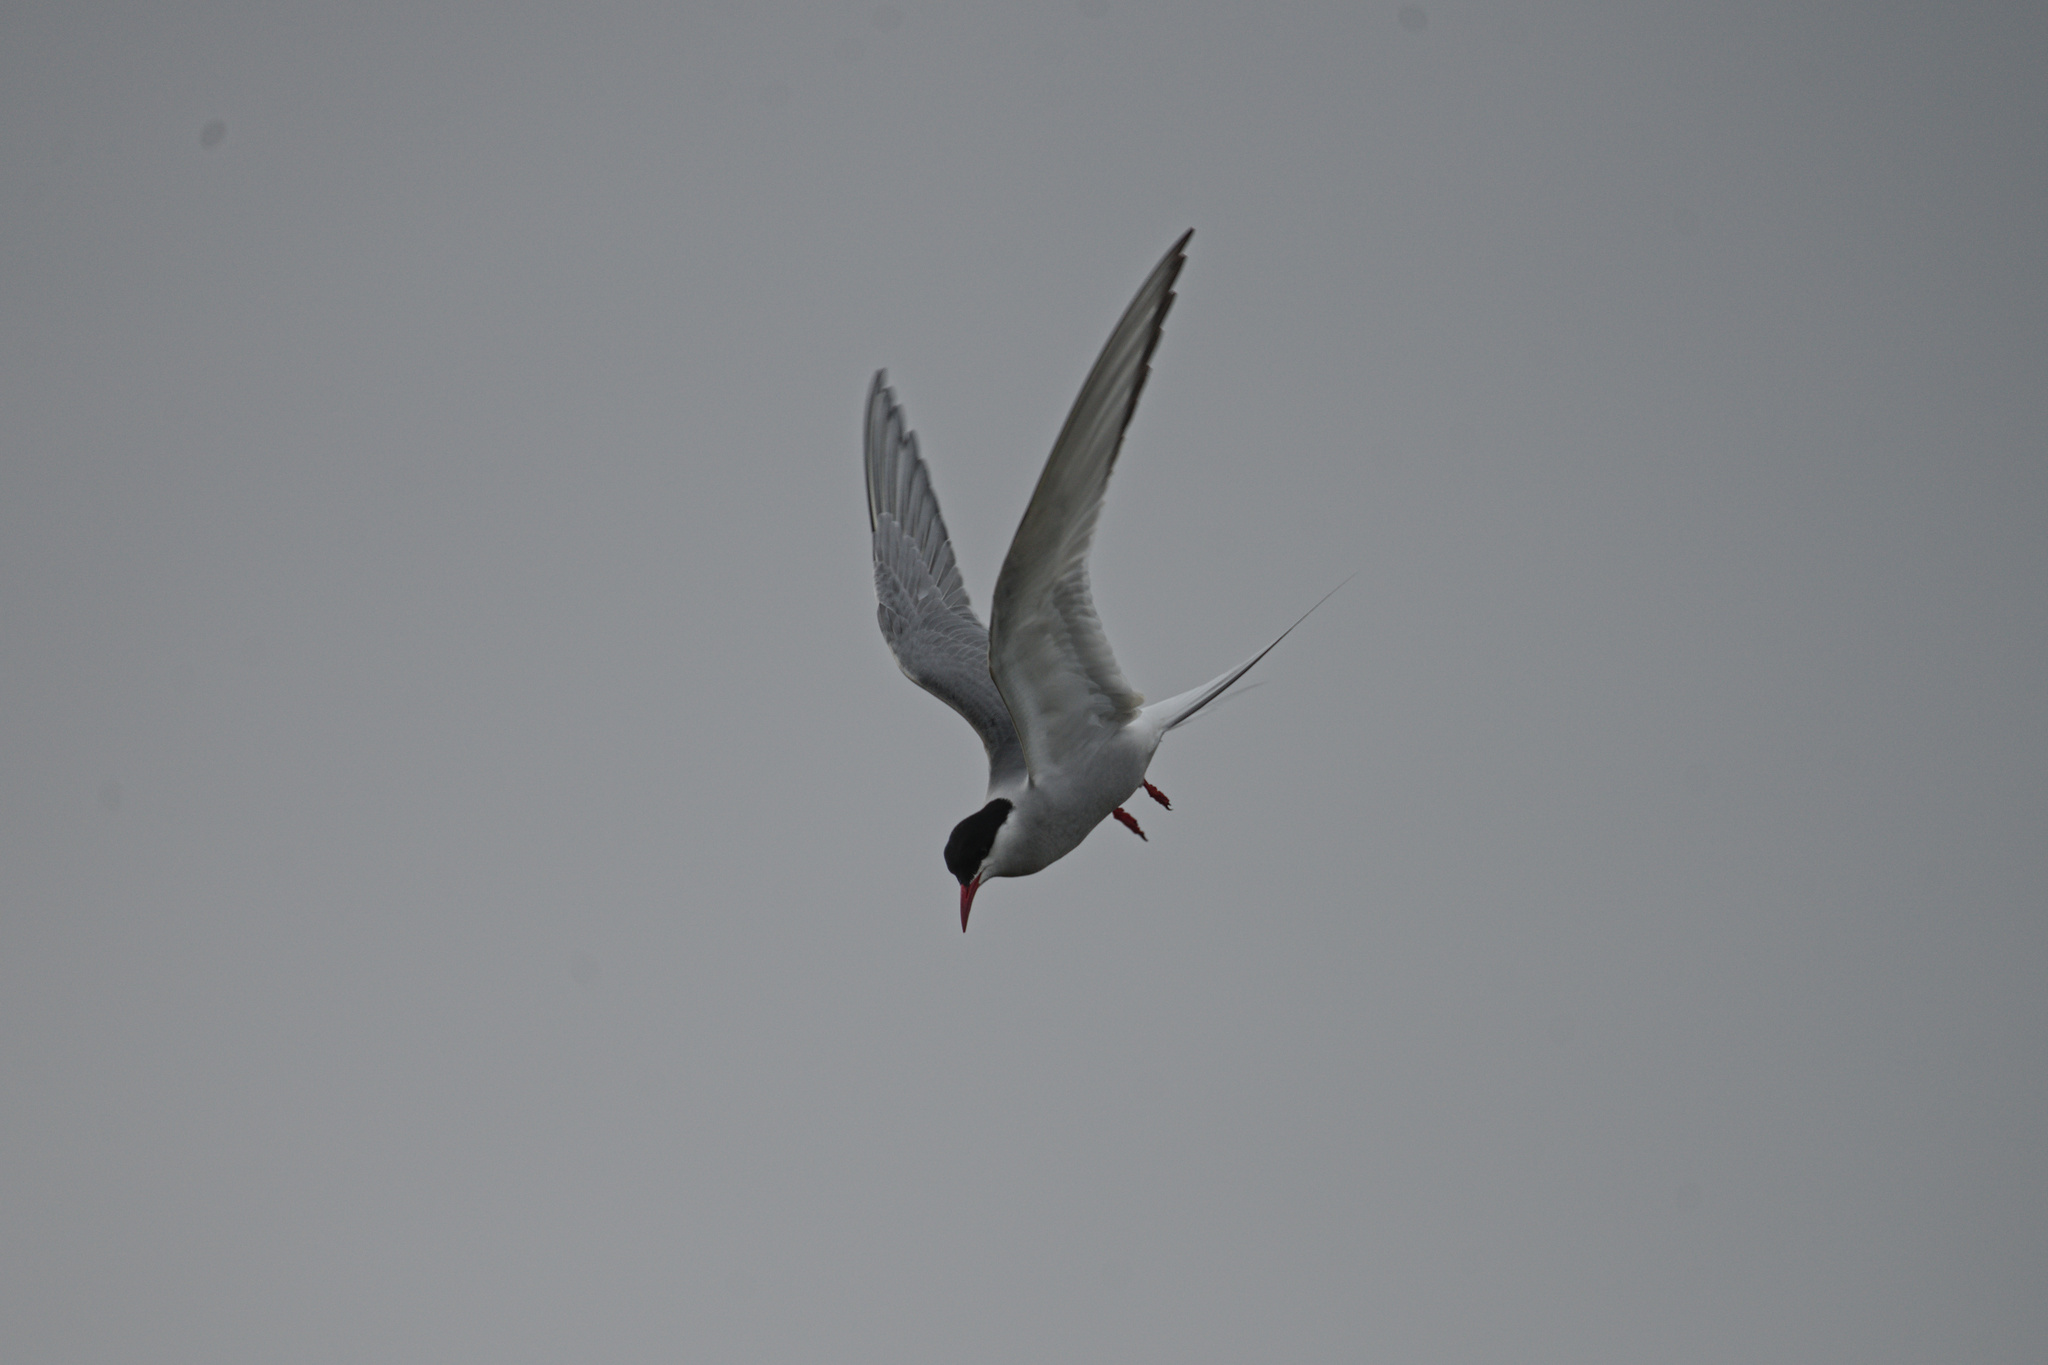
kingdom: Animalia
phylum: Chordata
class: Aves
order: Charadriiformes
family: Laridae
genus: Sterna
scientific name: Sterna paradisaea
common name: Arctic tern
